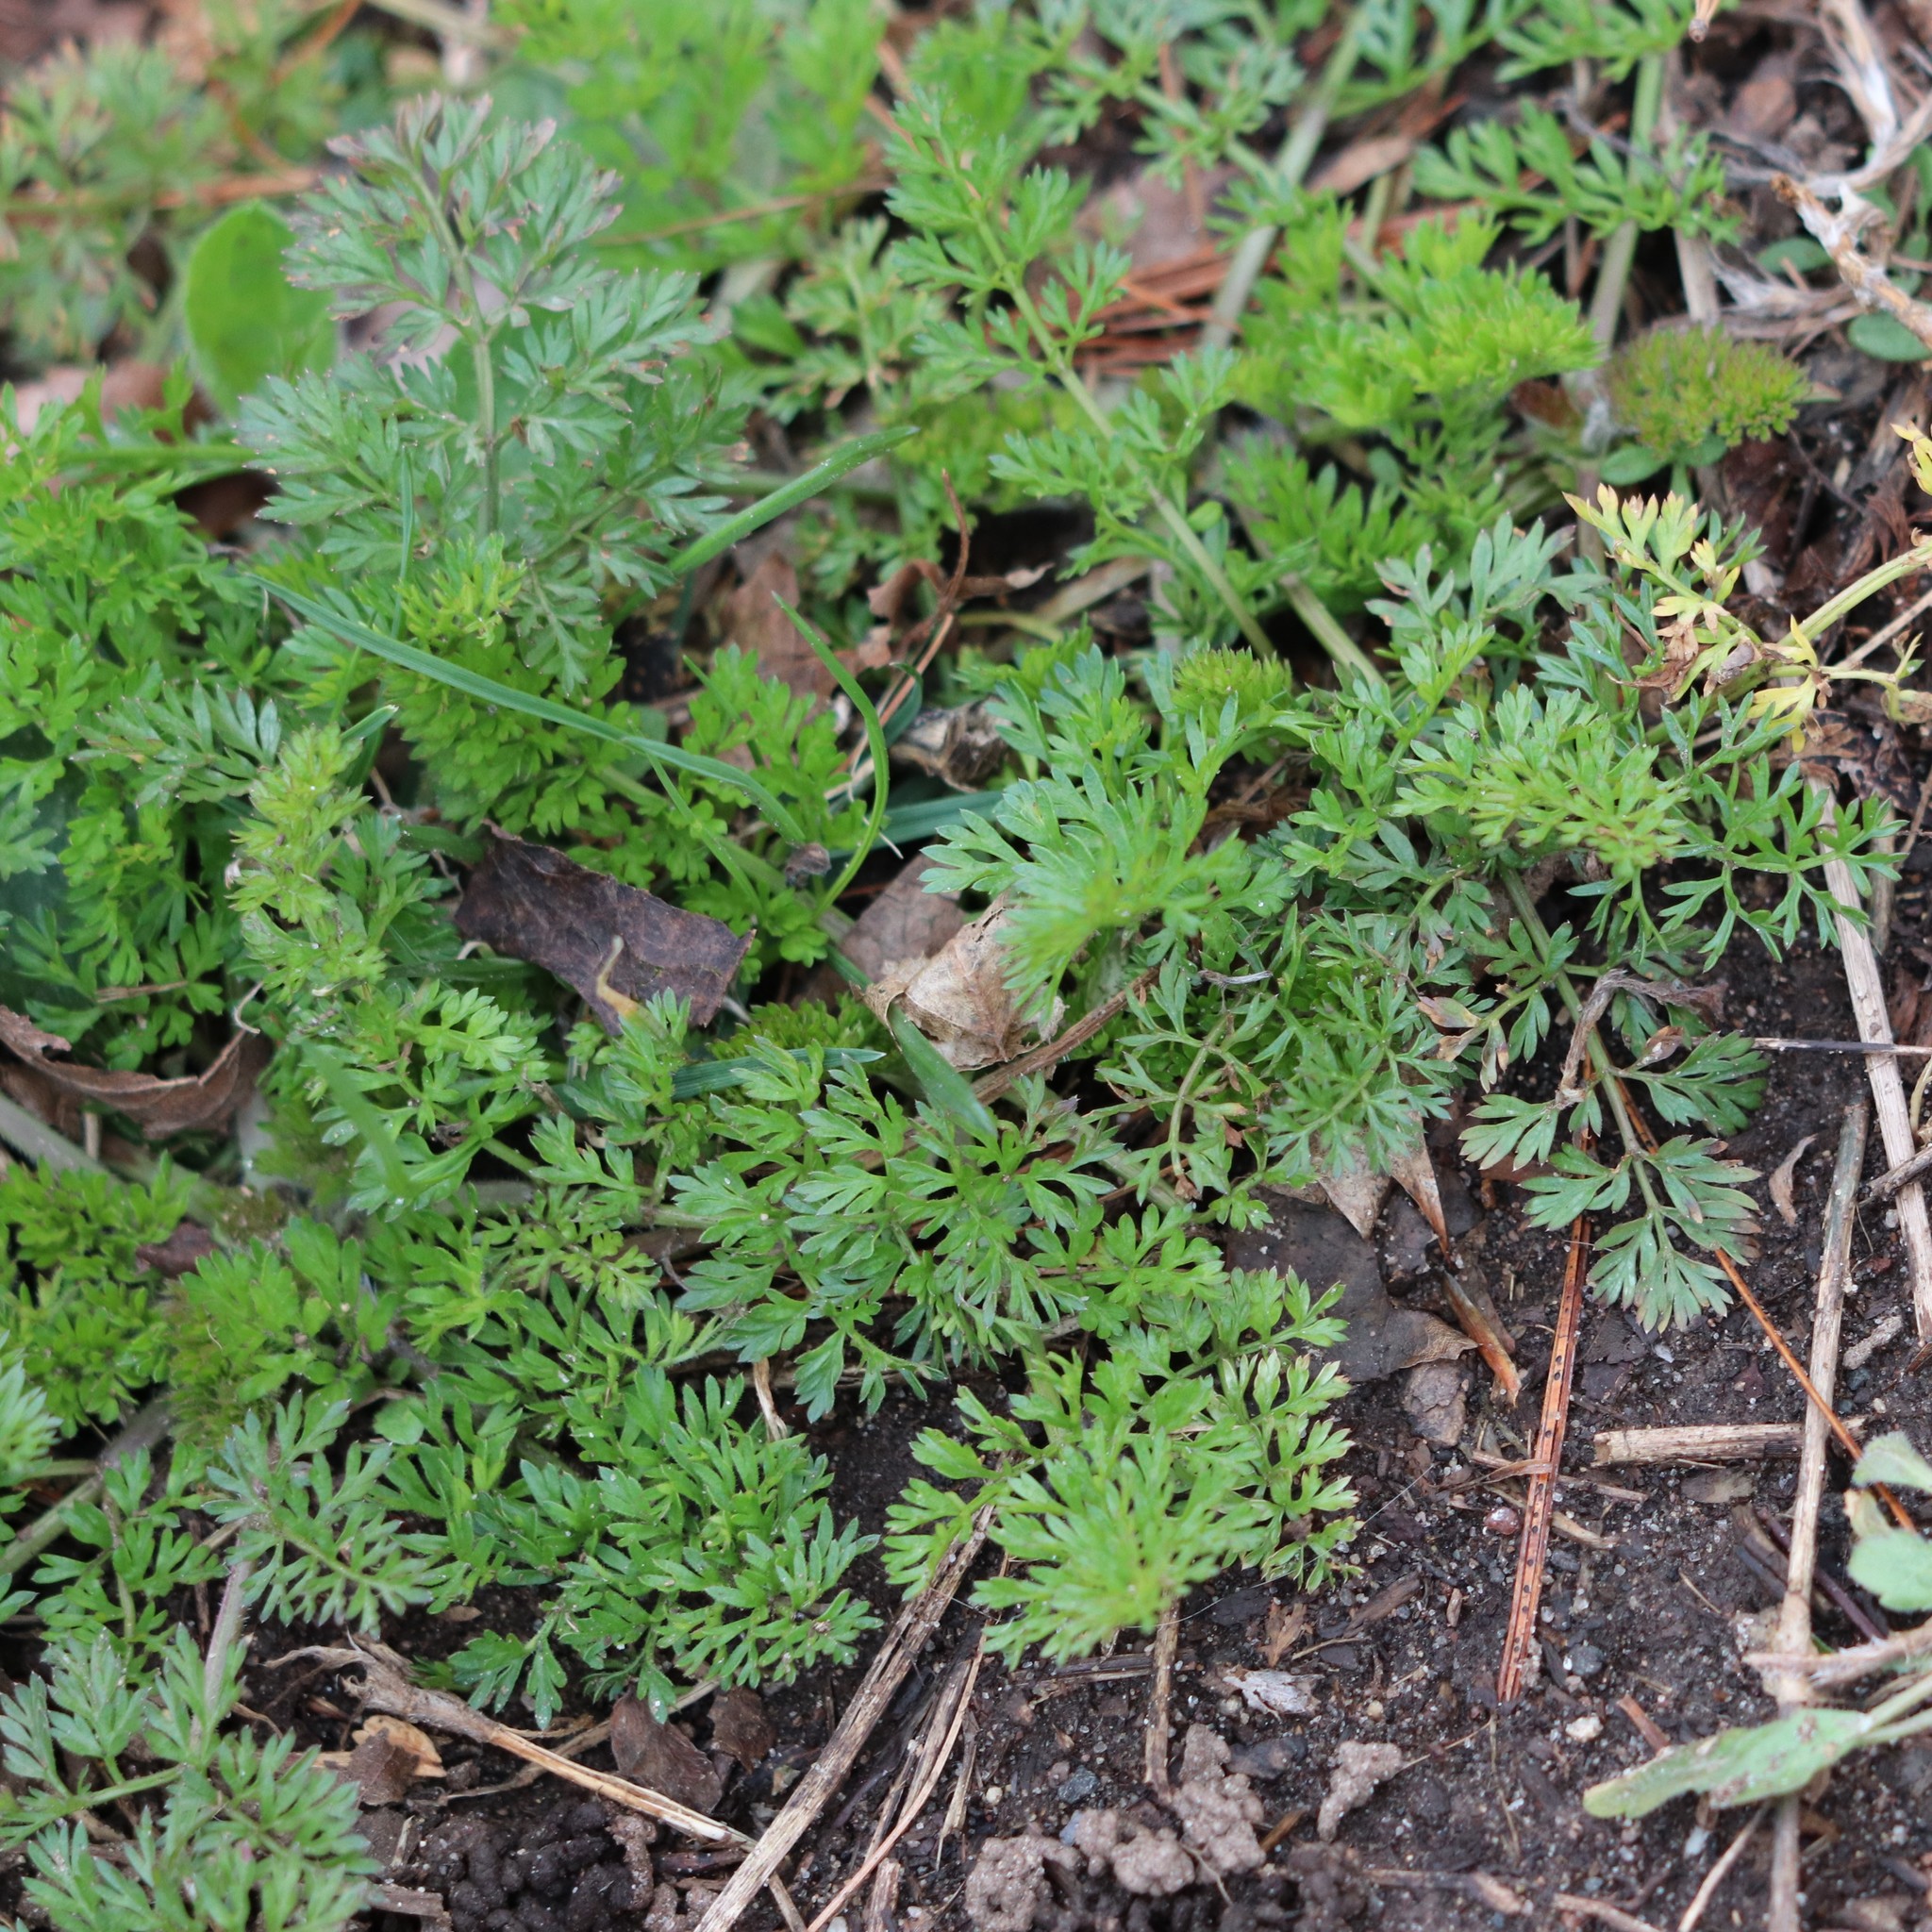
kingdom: Plantae
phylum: Tracheophyta
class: Magnoliopsida
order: Apiales
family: Apiaceae
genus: Daucus
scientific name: Daucus carota
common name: Wild carrot
